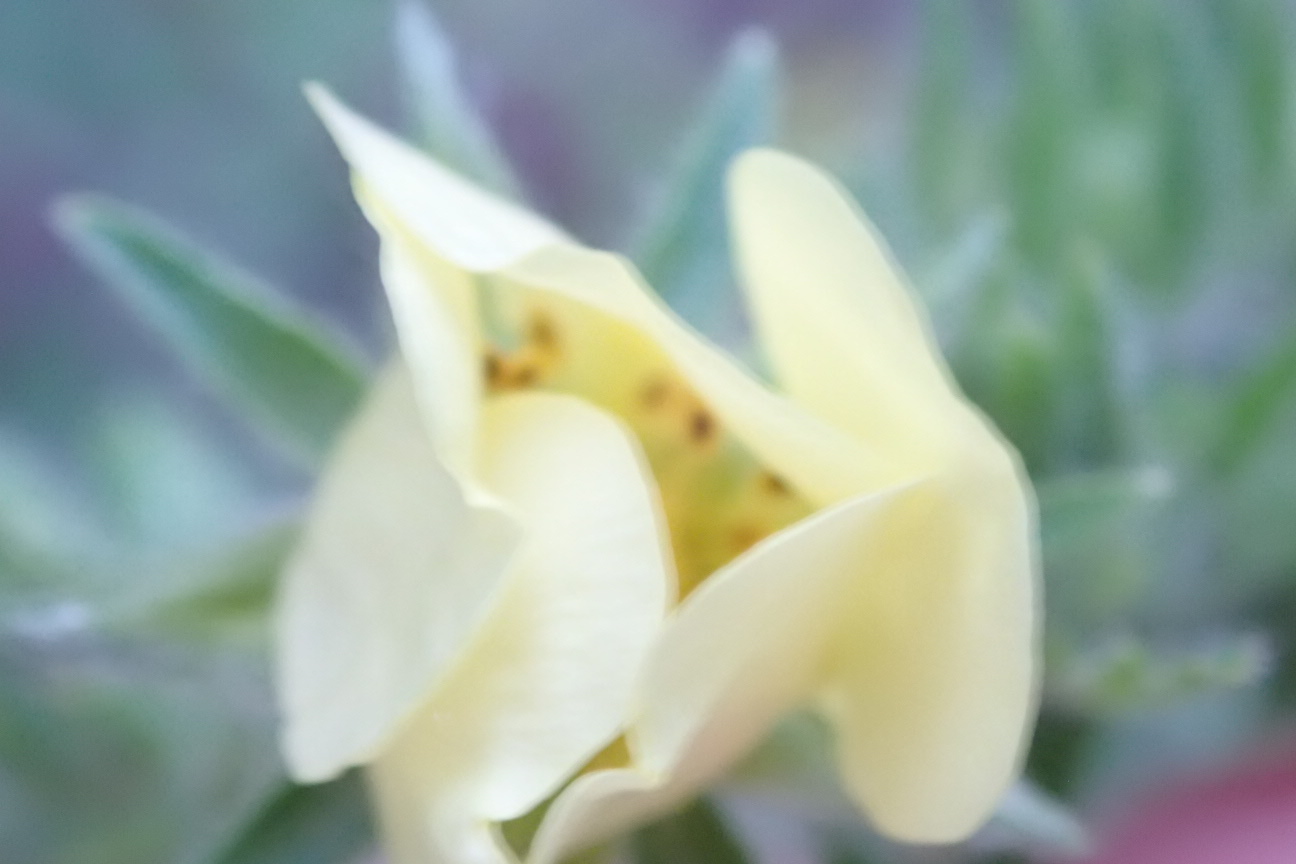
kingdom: Plantae
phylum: Tracheophyta
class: Magnoliopsida
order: Fabales
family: Fabaceae
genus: Melilotus
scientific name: Melilotus albus
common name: White melilot
